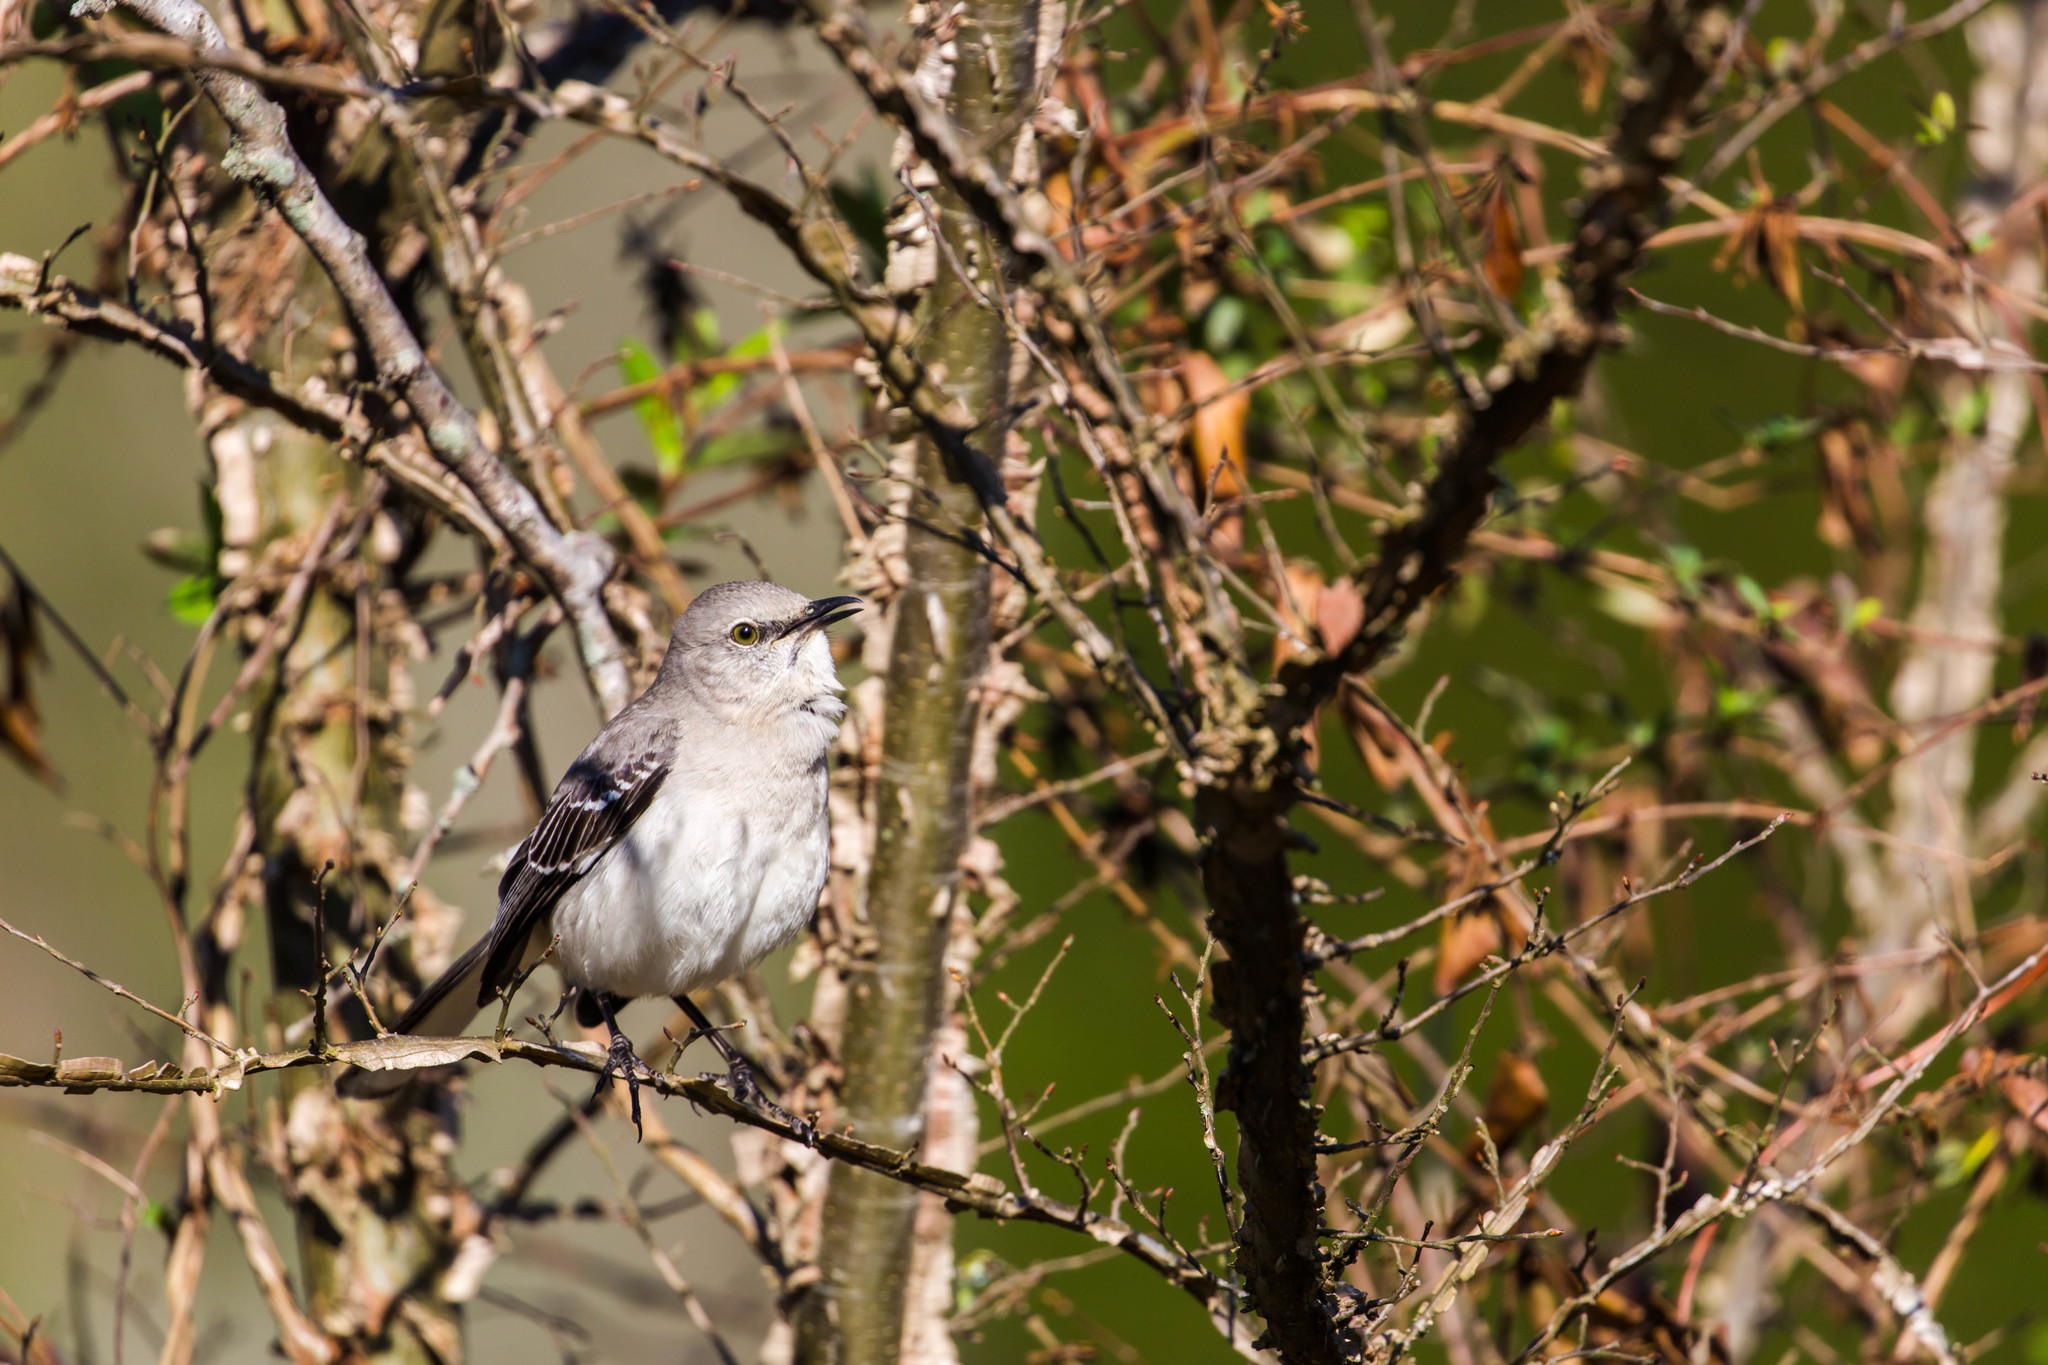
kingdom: Animalia
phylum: Chordata
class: Aves
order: Passeriformes
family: Mimidae
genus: Mimus
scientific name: Mimus polyglottos
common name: Northern mockingbird
